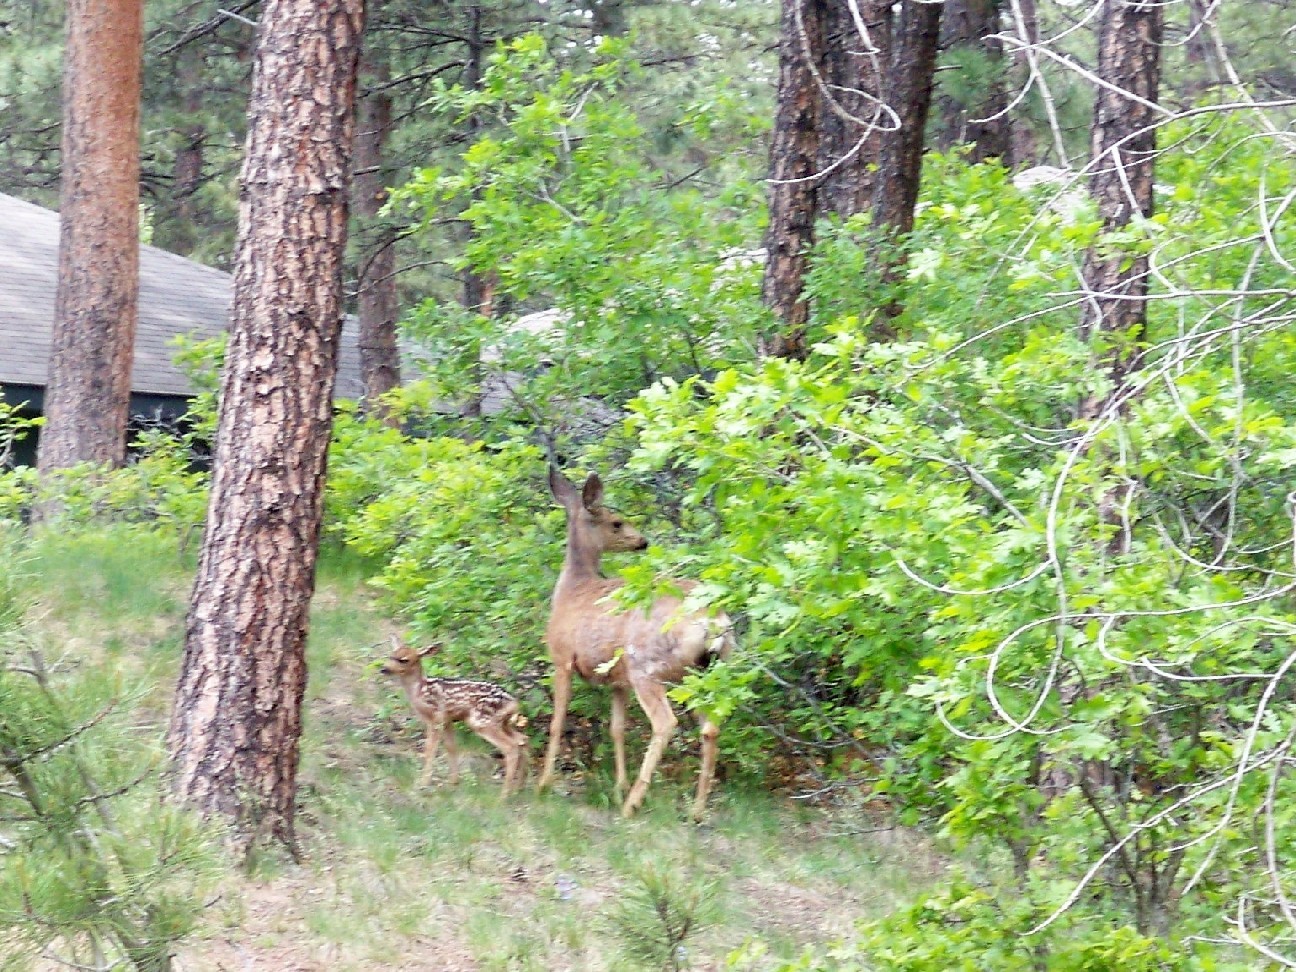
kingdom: Animalia
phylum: Chordata
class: Mammalia
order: Artiodactyla
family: Cervidae
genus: Odocoileus
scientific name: Odocoileus hemionus
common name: Mule deer
